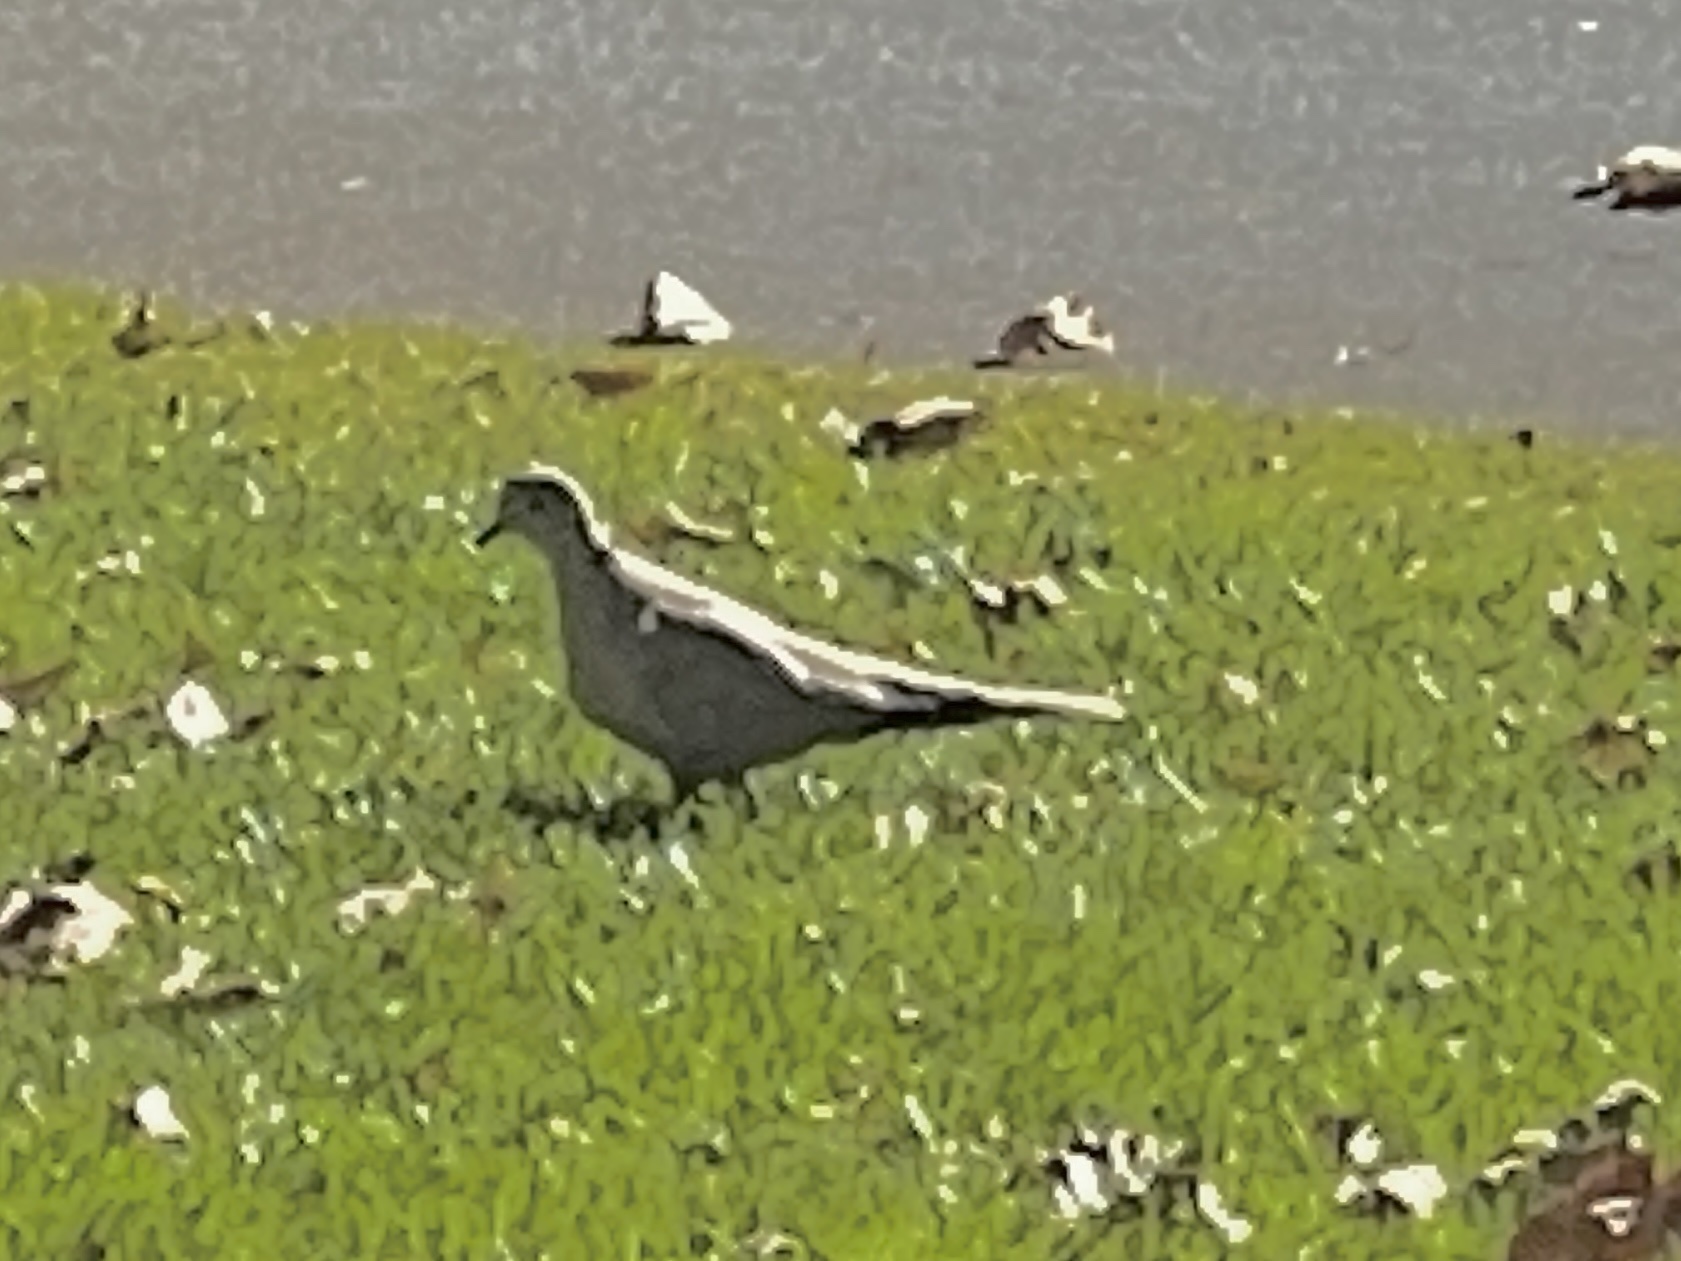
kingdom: Animalia
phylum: Chordata
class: Aves
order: Columbiformes
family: Columbidae
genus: Streptopelia
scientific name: Streptopelia decaocto
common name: Eurasian collared dove
